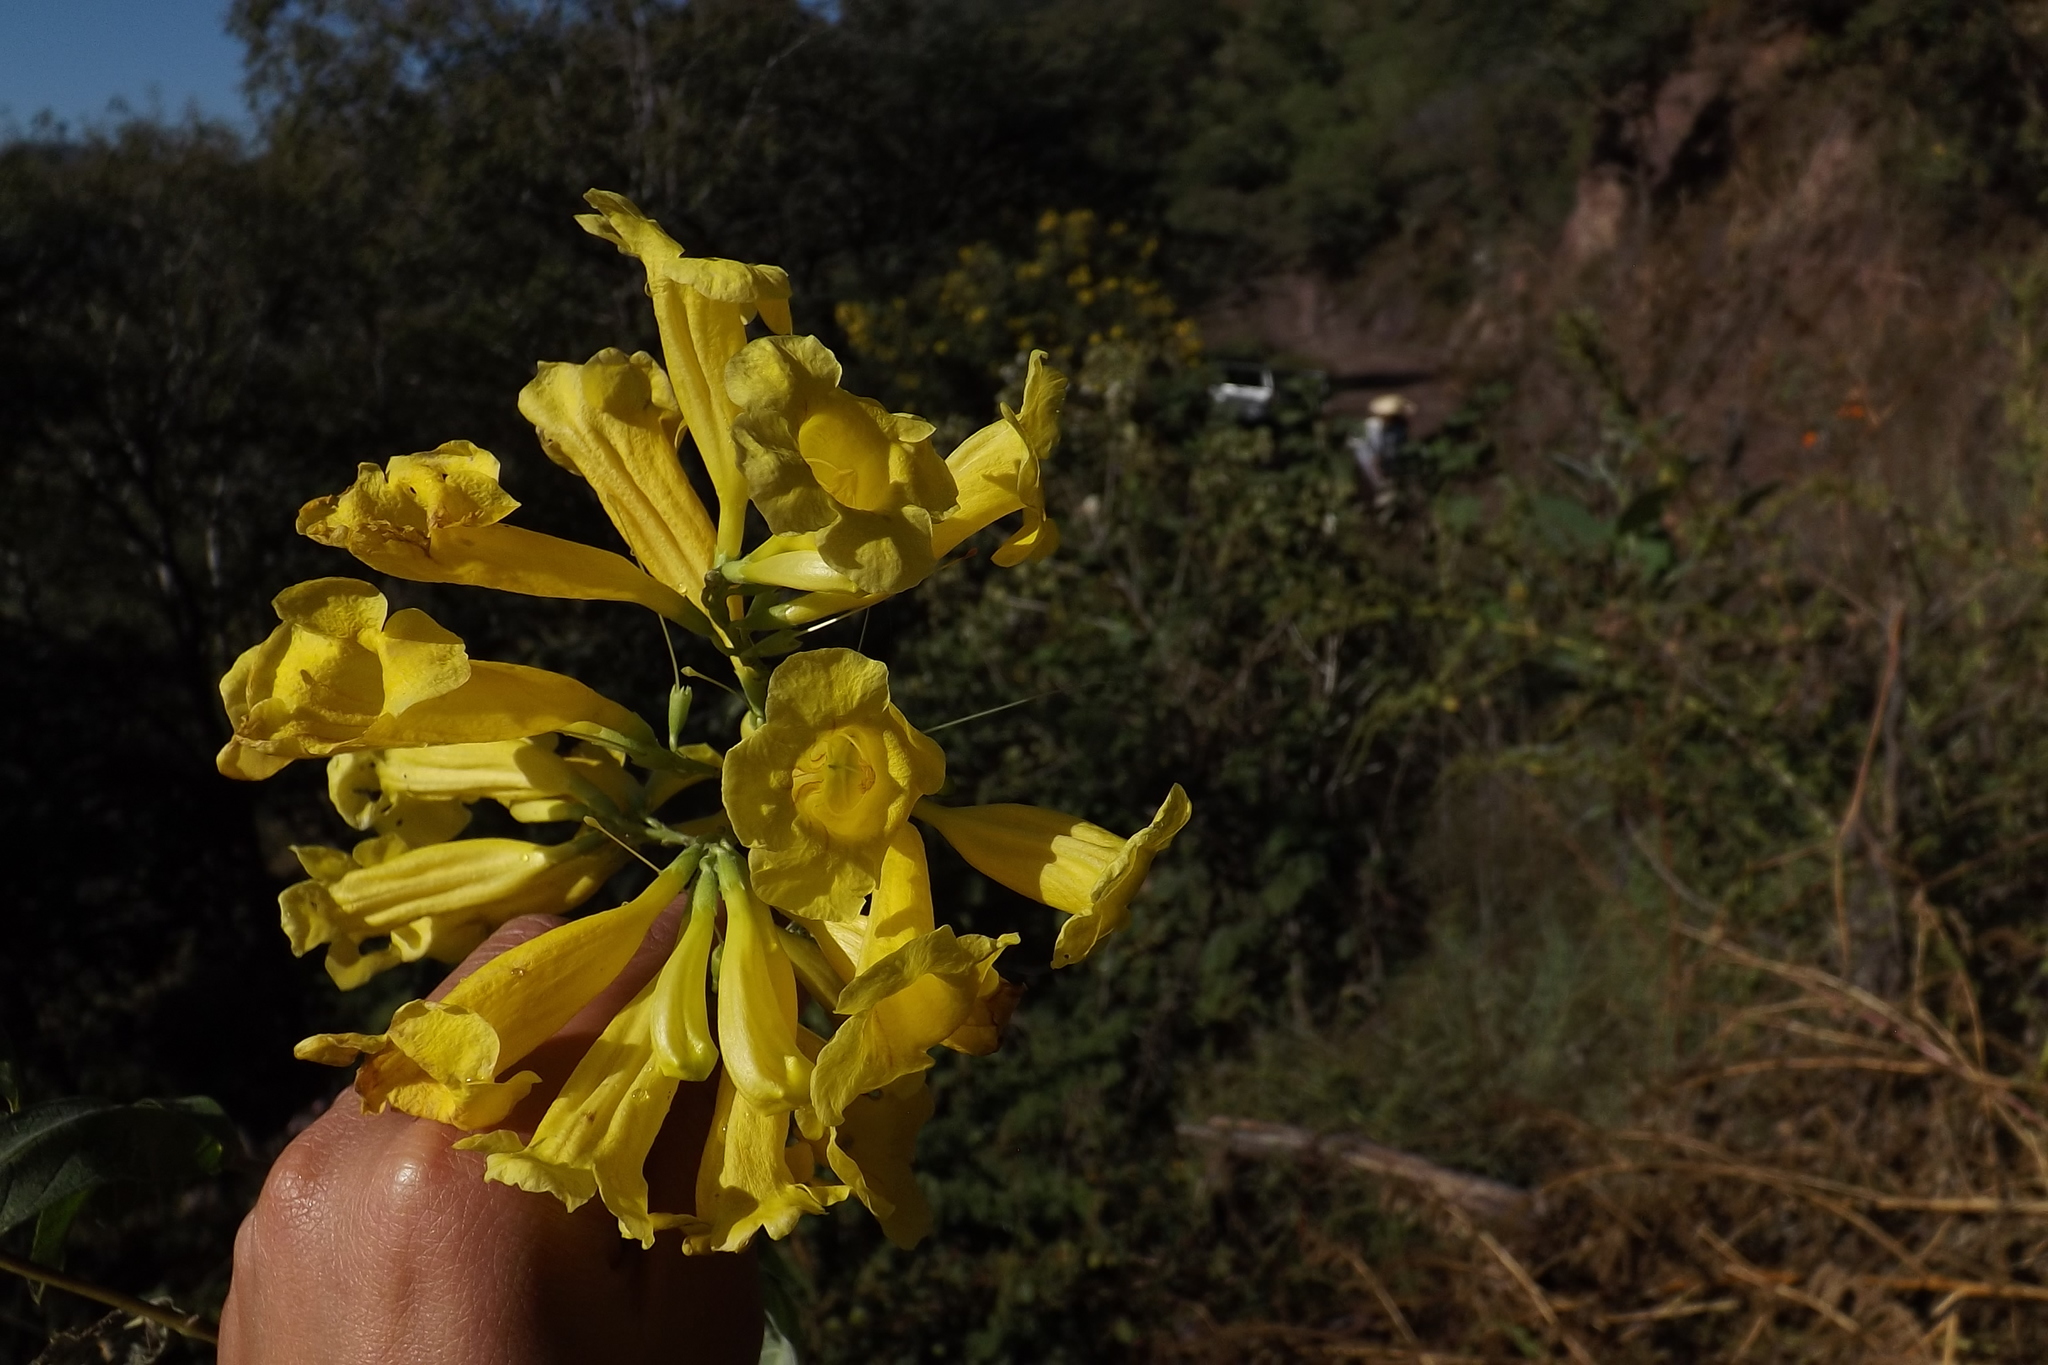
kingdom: Plantae
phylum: Tracheophyta
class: Magnoliopsida
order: Lamiales
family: Bignoniaceae
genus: Tecoma
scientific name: Tecoma stans
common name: Yellow trumpetbush
